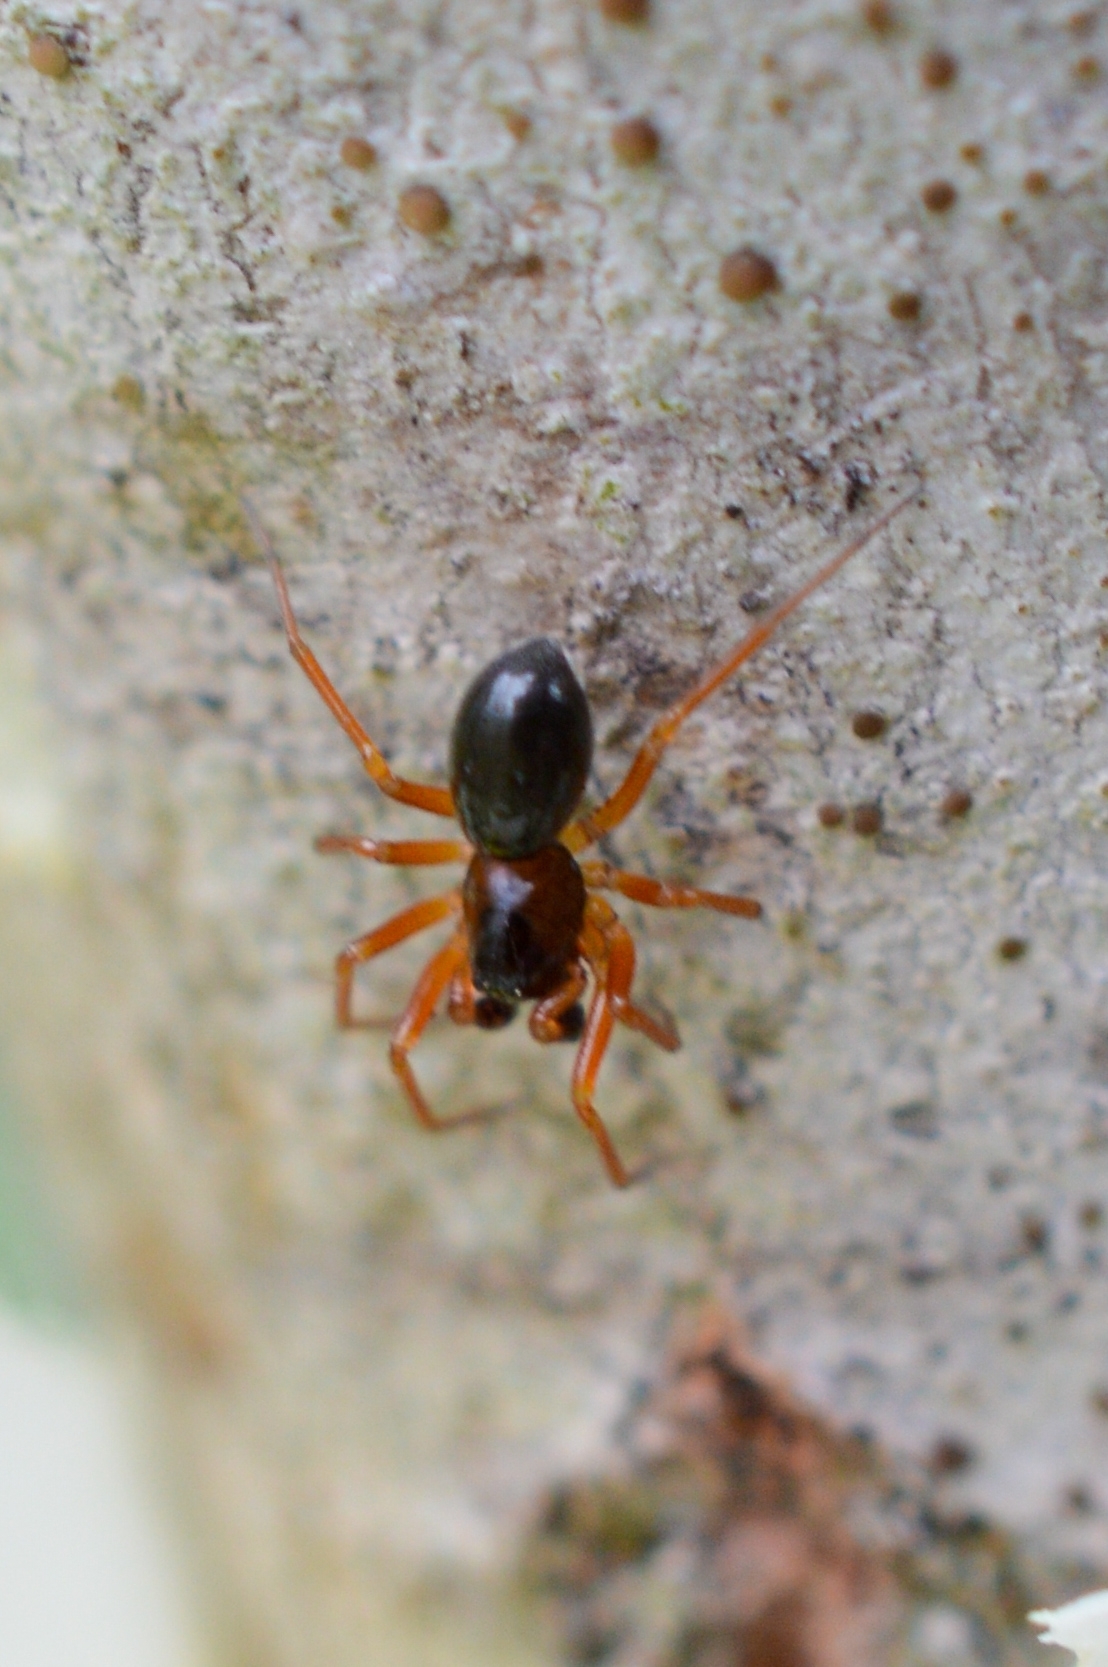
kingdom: Animalia
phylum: Arthropoda
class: Arachnida
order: Araneae
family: Linyphiidae
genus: Gongylidium
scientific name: Gongylidium rufipes
